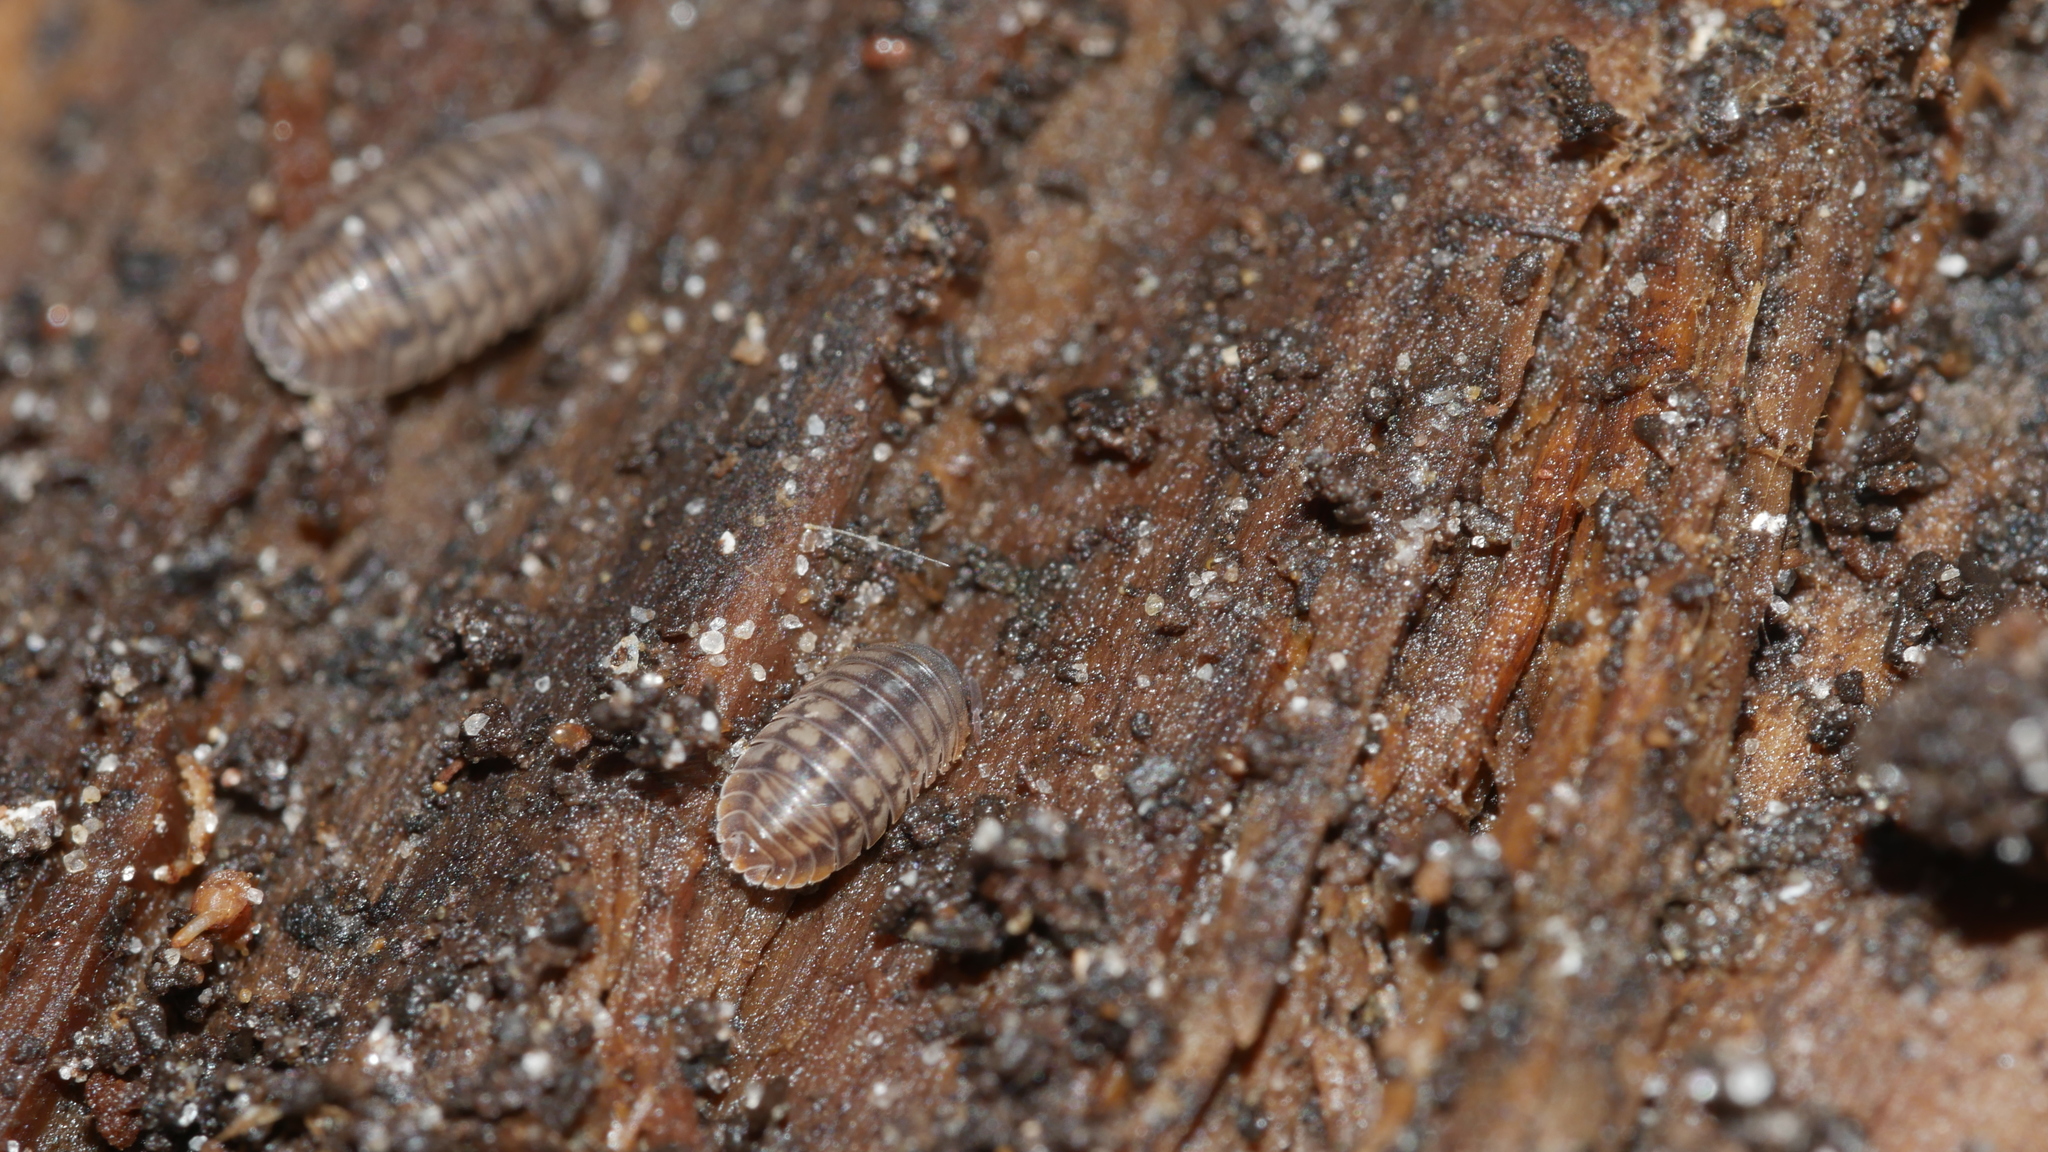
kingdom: Animalia
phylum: Arthropoda
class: Malacostraca
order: Isopoda
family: Armadillidiidae
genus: Armadillidium
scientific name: Armadillidium nasatum
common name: Isopod
